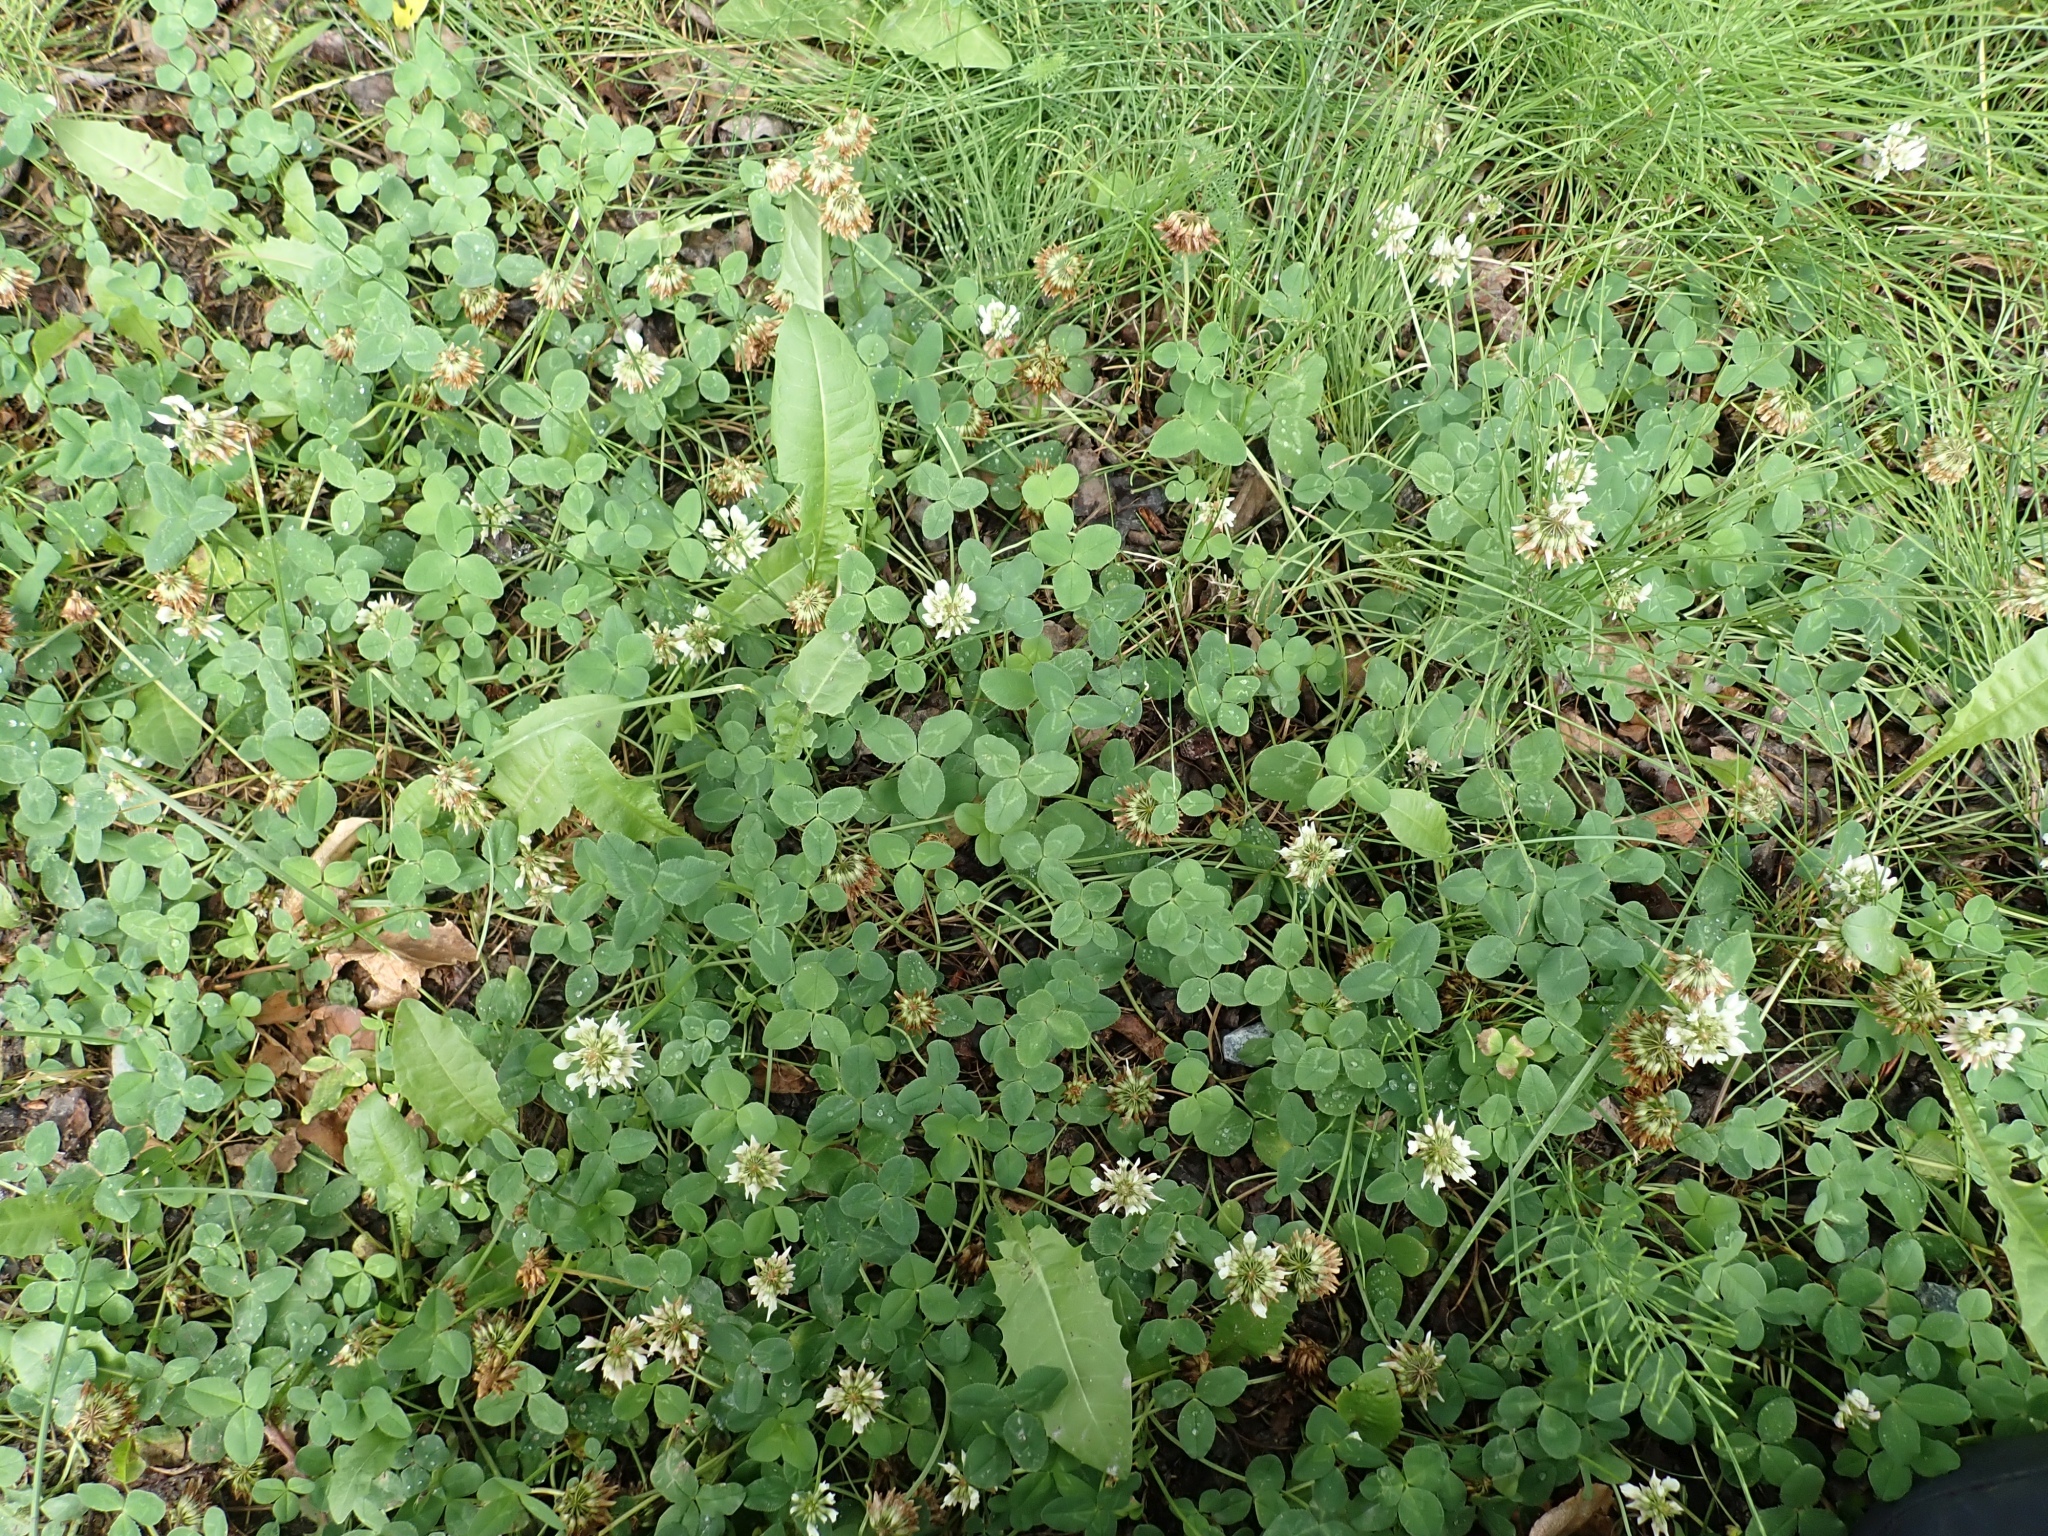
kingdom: Plantae
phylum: Tracheophyta
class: Magnoliopsida
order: Fabales
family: Fabaceae
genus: Trifolium
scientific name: Trifolium repens
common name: White clover
